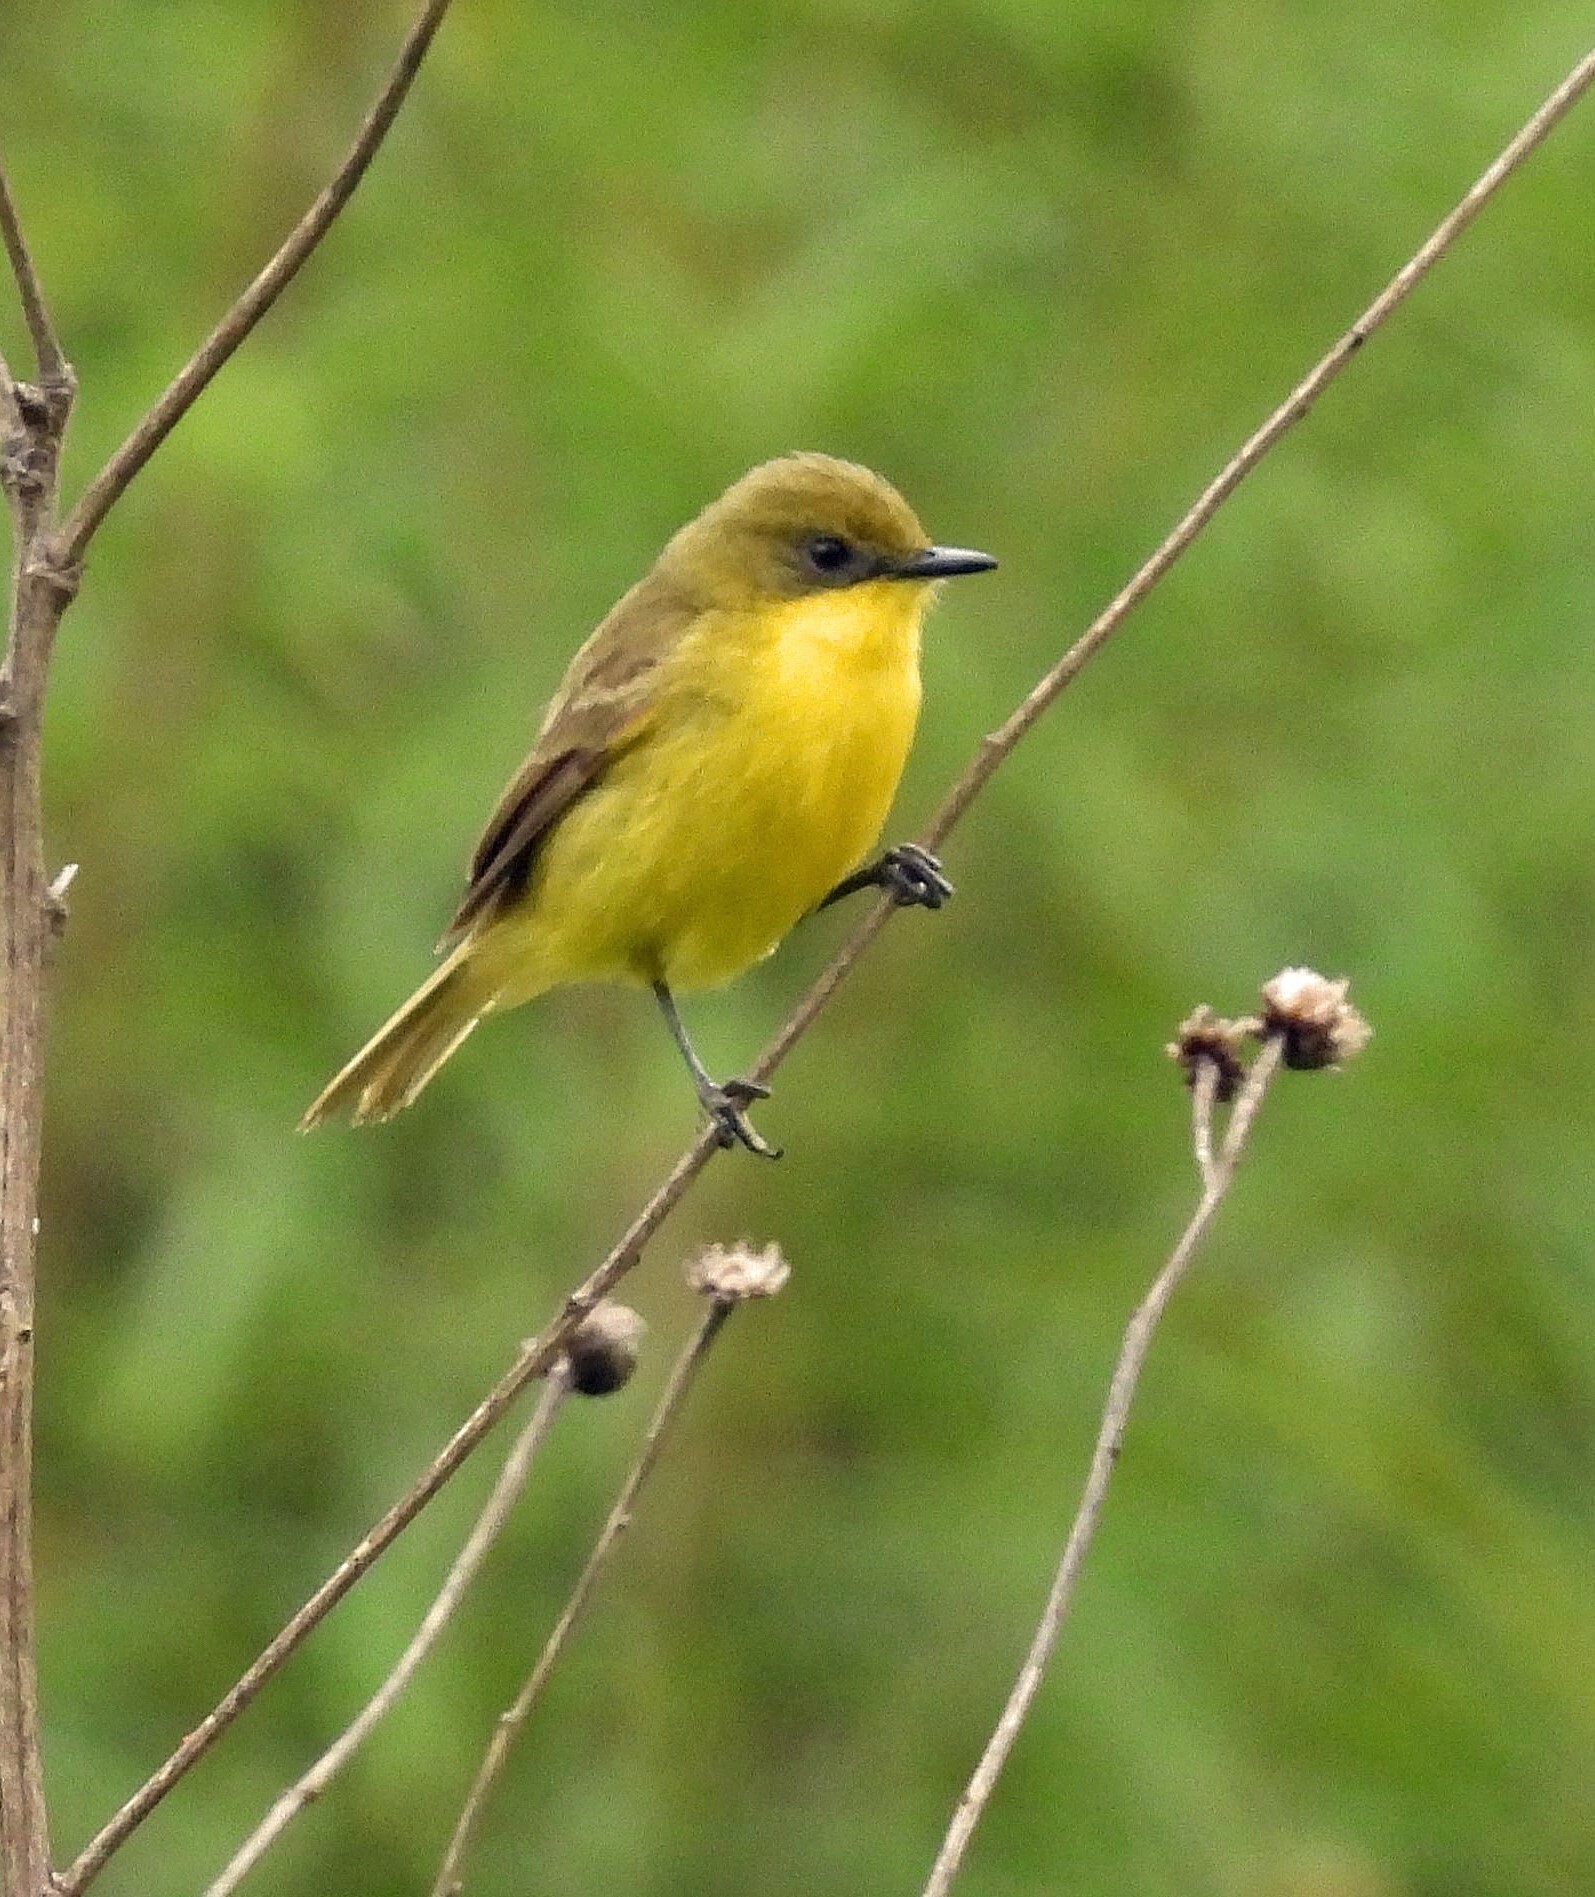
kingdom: Animalia
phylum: Chordata
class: Aves
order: Passeriformes
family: Tyrannidae
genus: Pseudocolopteryx
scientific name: Pseudocolopteryx acutipennis
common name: Subtropical doradito
